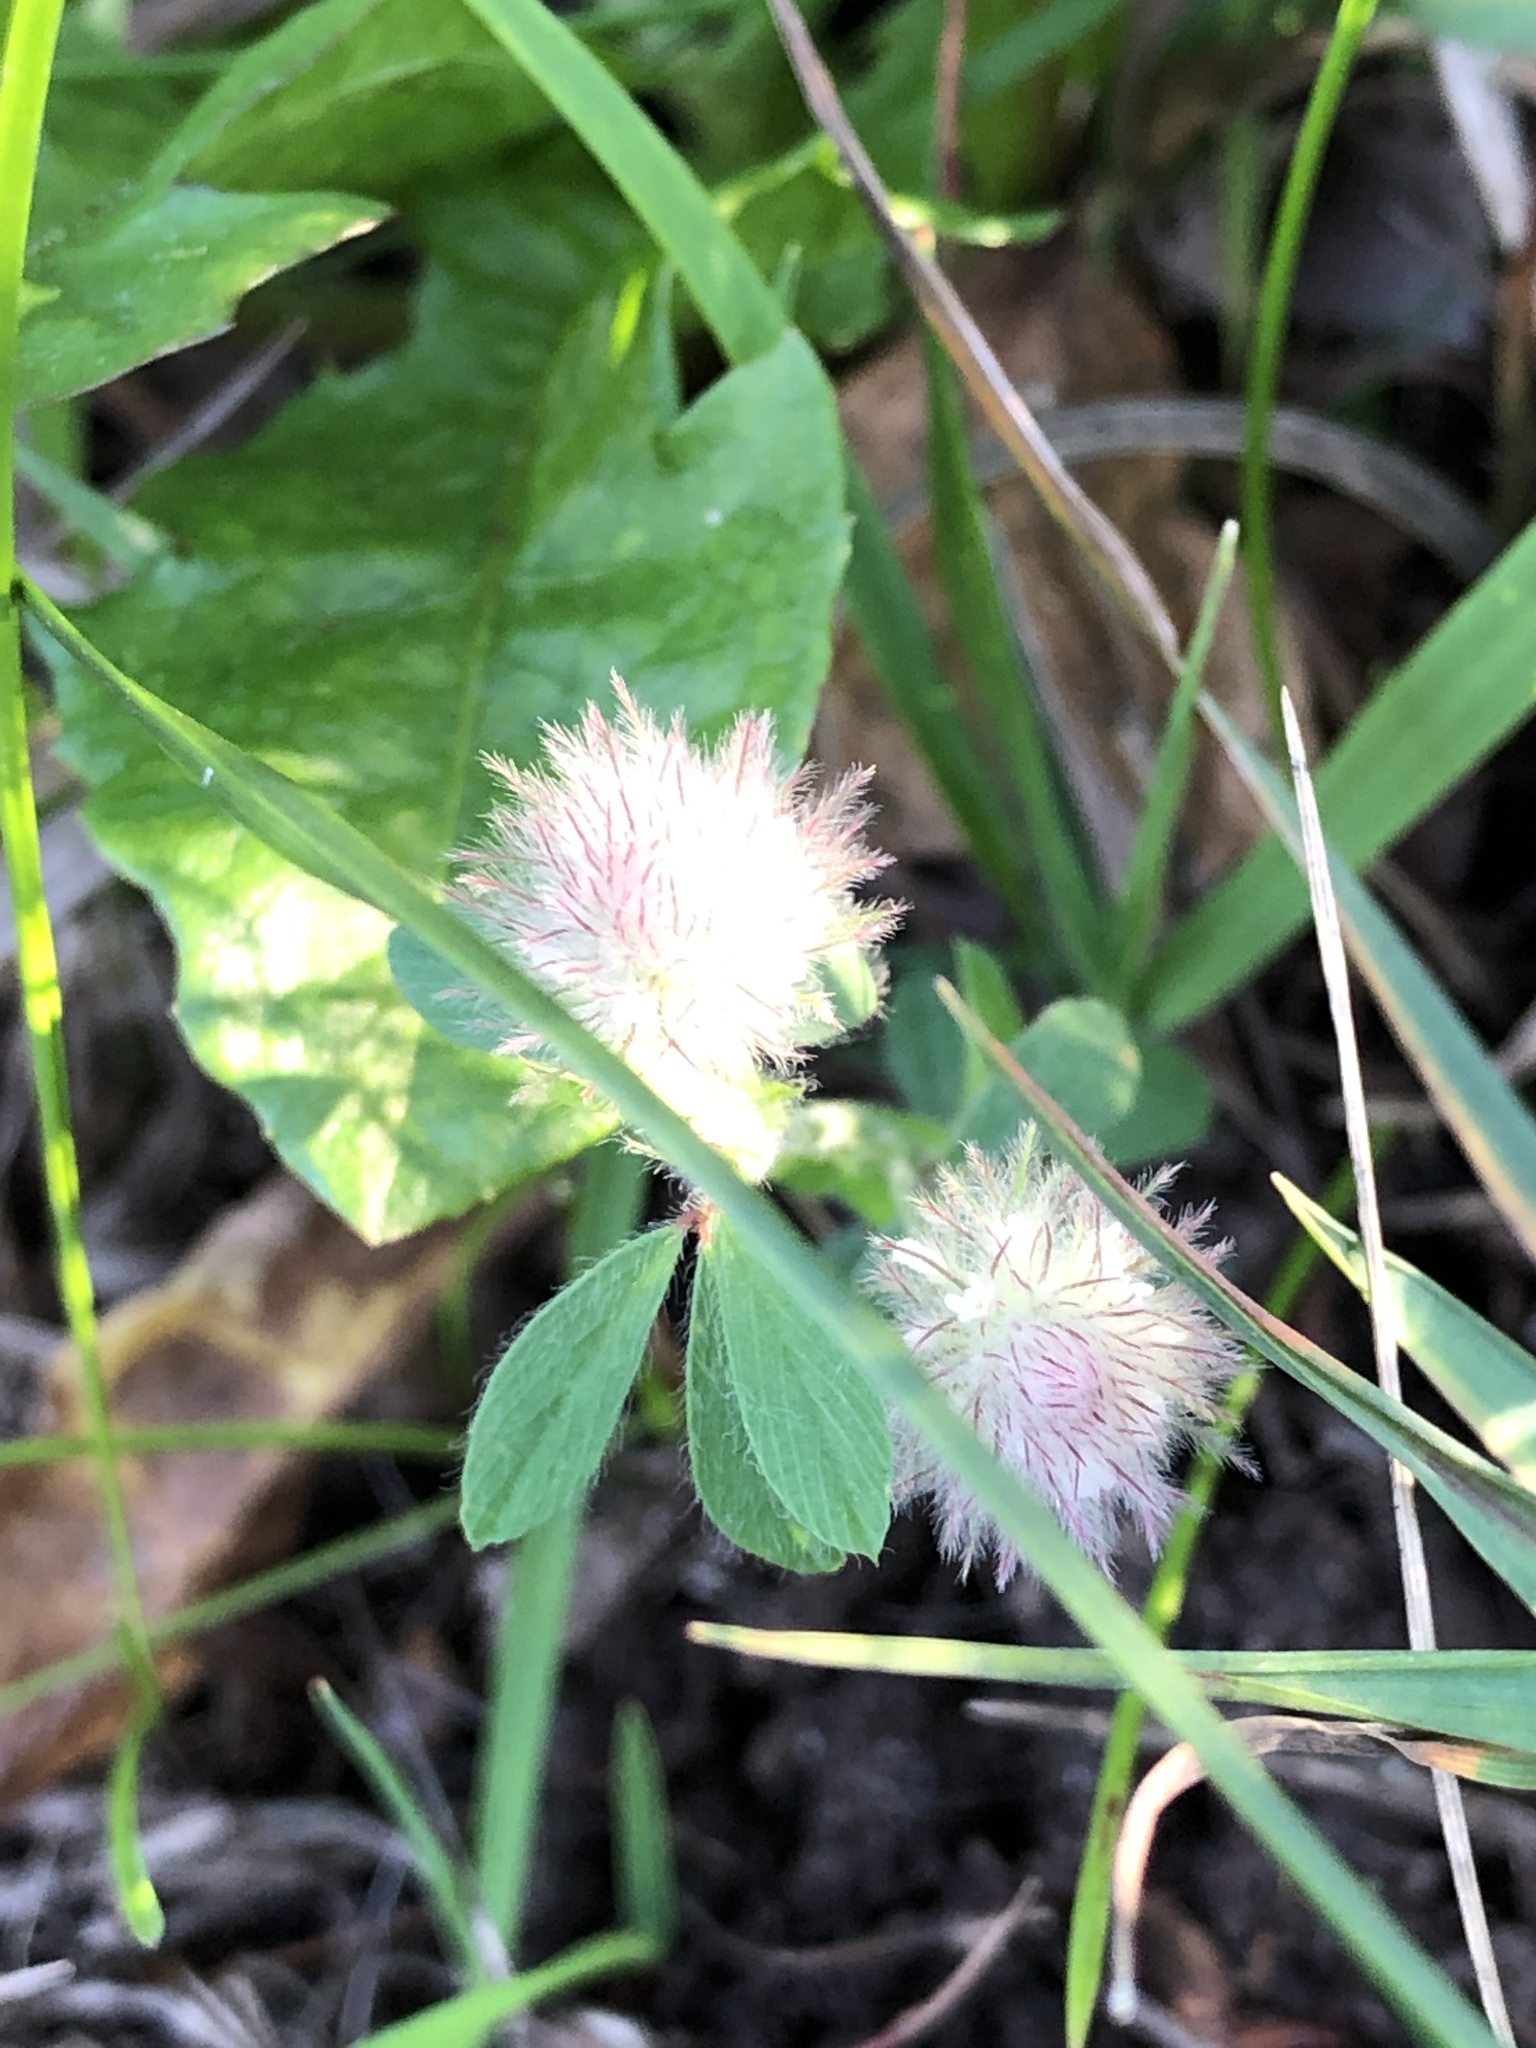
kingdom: Plantae
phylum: Tracheophyta
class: Magnoliopsida
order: Fabales
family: Fabaceae
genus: Trifolium
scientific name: Trifolium arvense
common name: Hare's-foot clover
